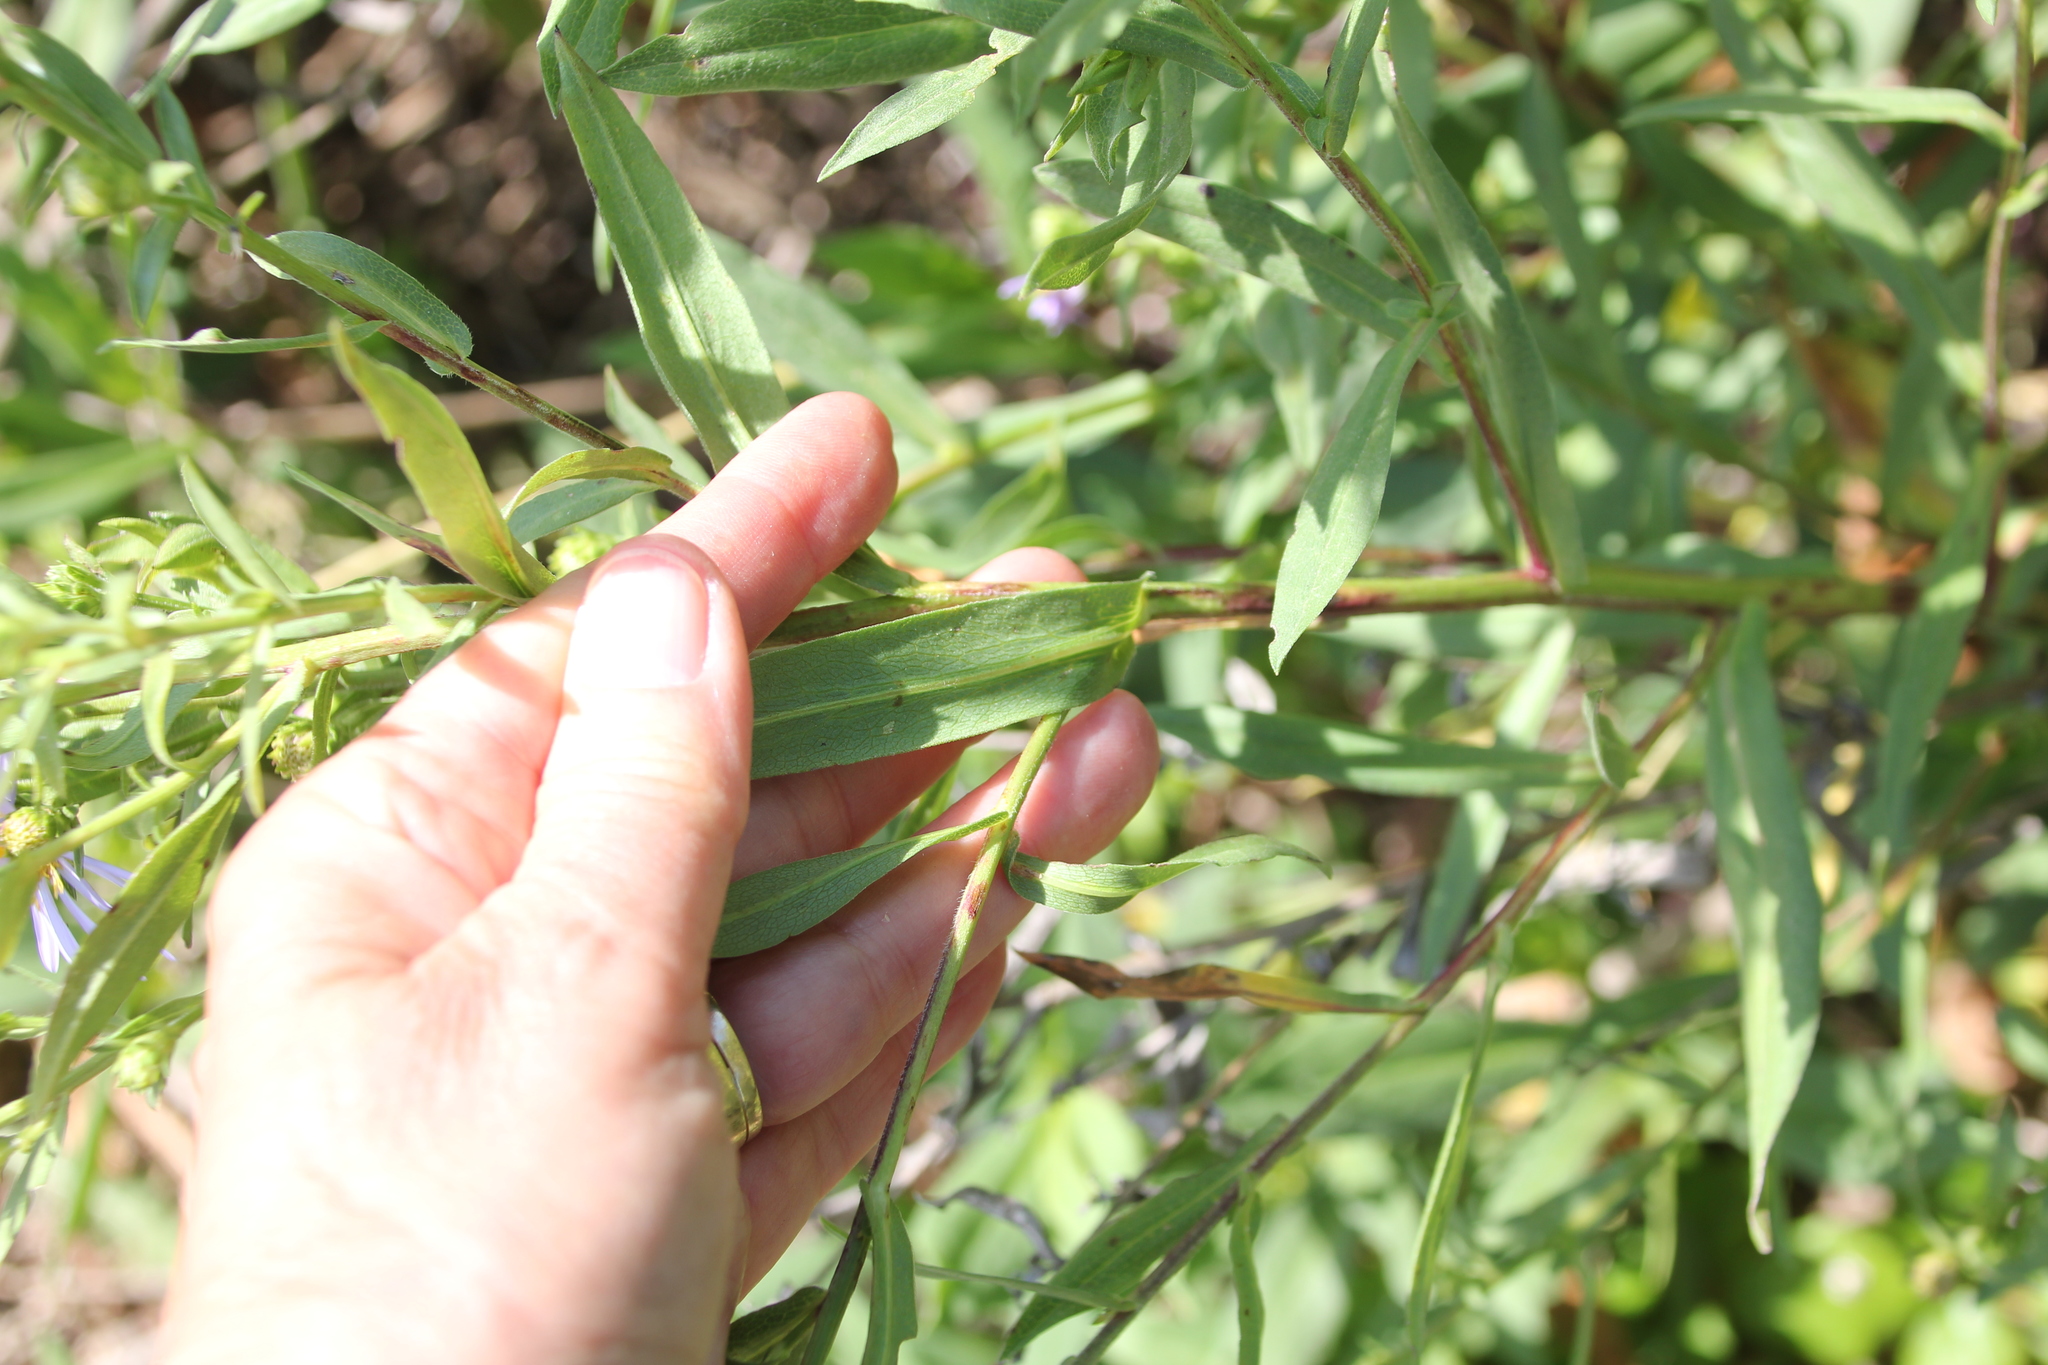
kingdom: Plantae
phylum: Tracheophyta
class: Magnoliopsida
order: Asterales
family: Asteraceae
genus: Symphyotrichum
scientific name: Symphyotrichum chilense
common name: Pacific aster
